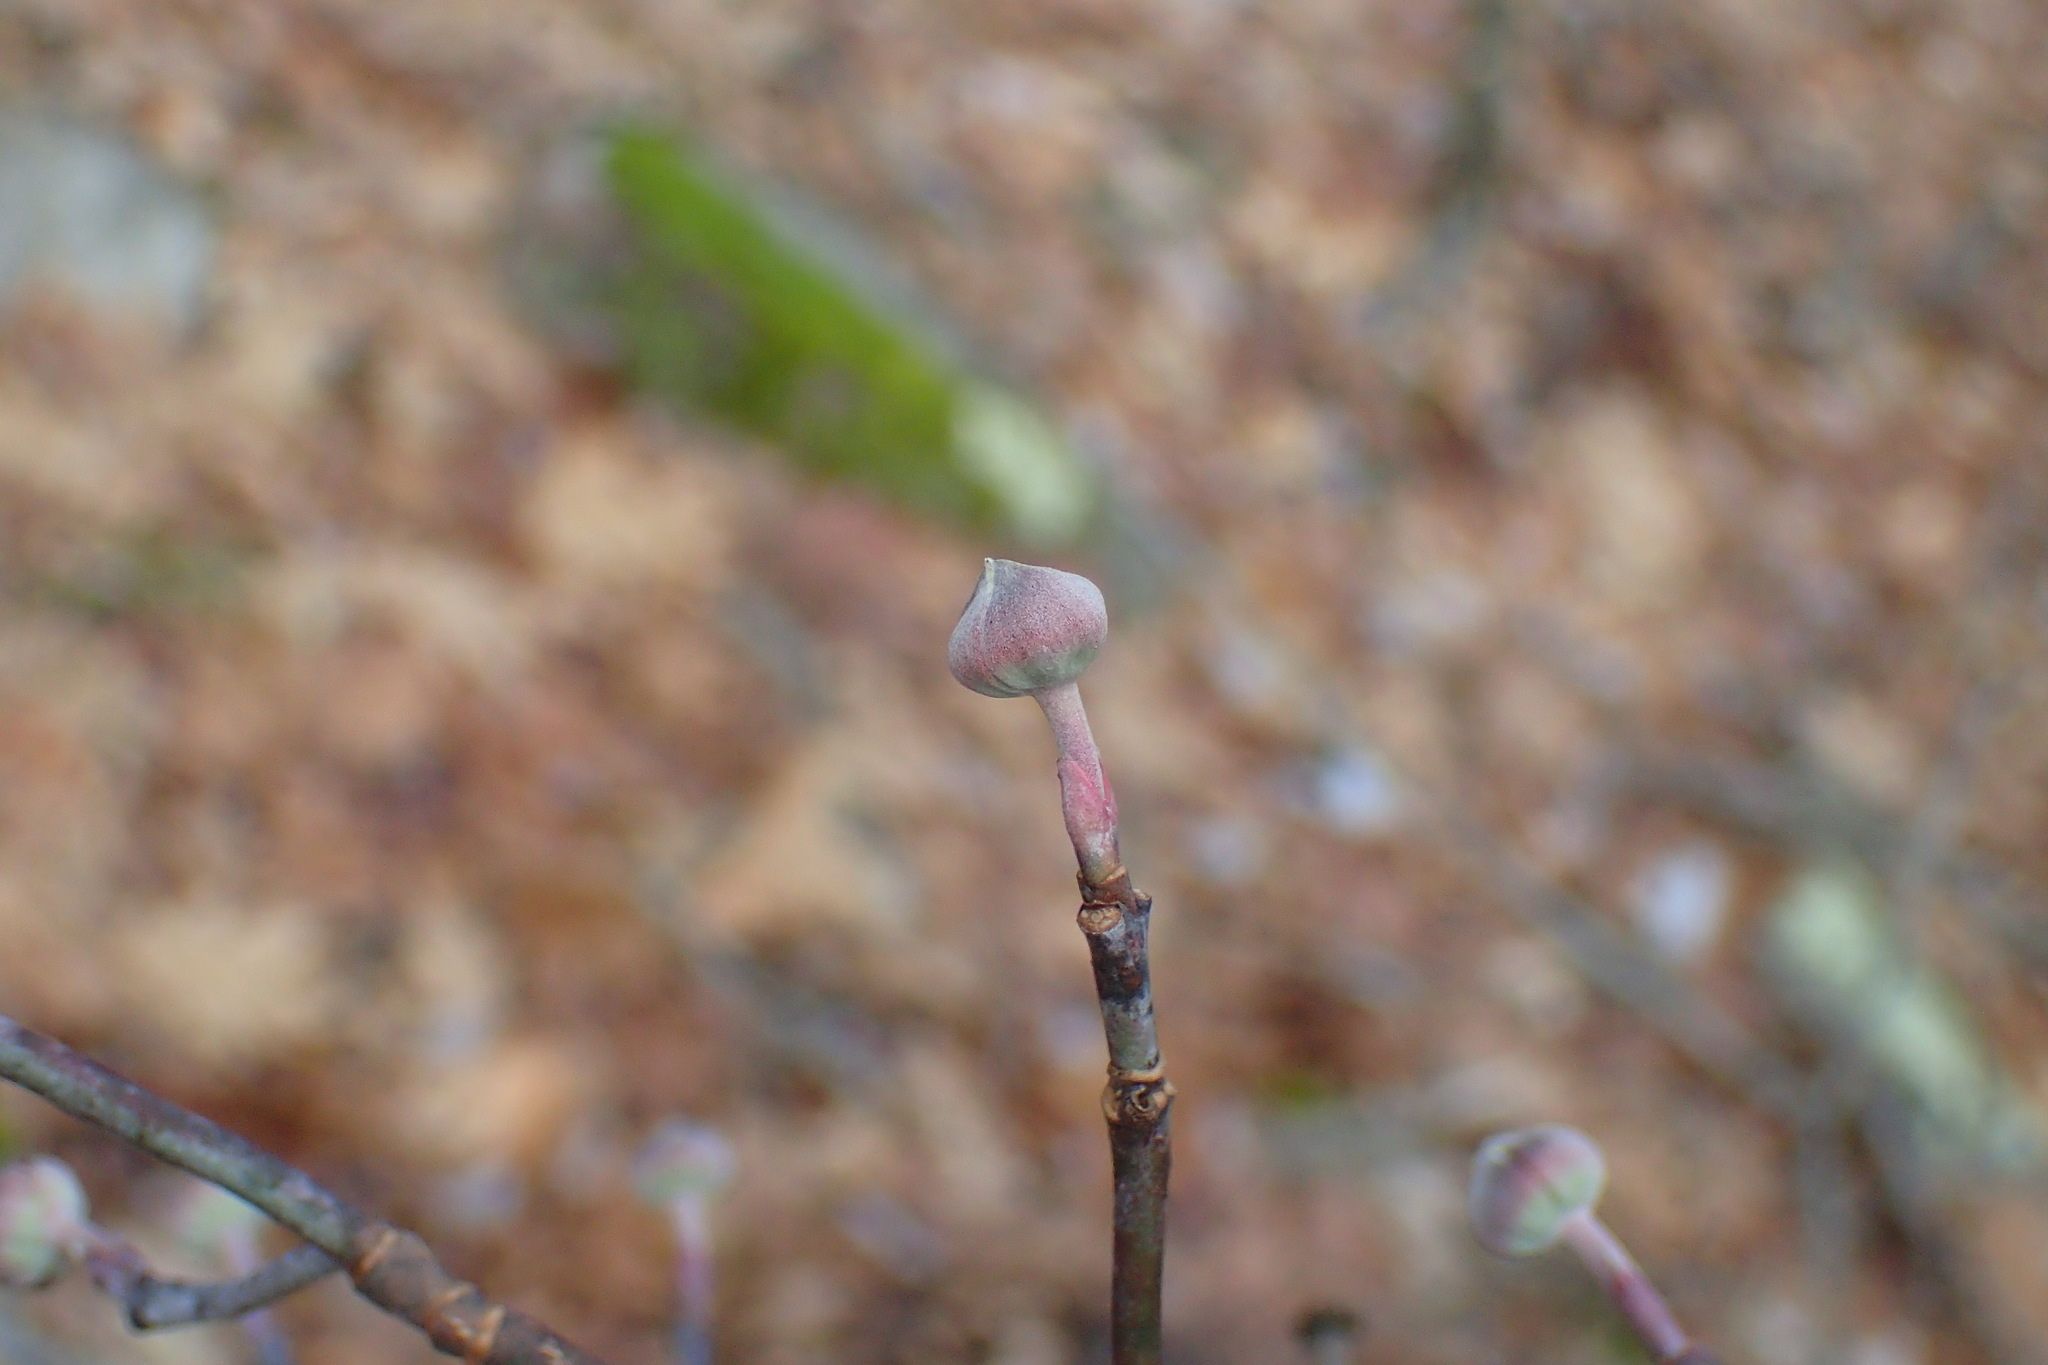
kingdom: Plantae
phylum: Tracheophyta
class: Magnoliopsida
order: Cornales
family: Cornaceae
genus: Cornus
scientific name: Cornus florida
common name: Flowering dogwood
